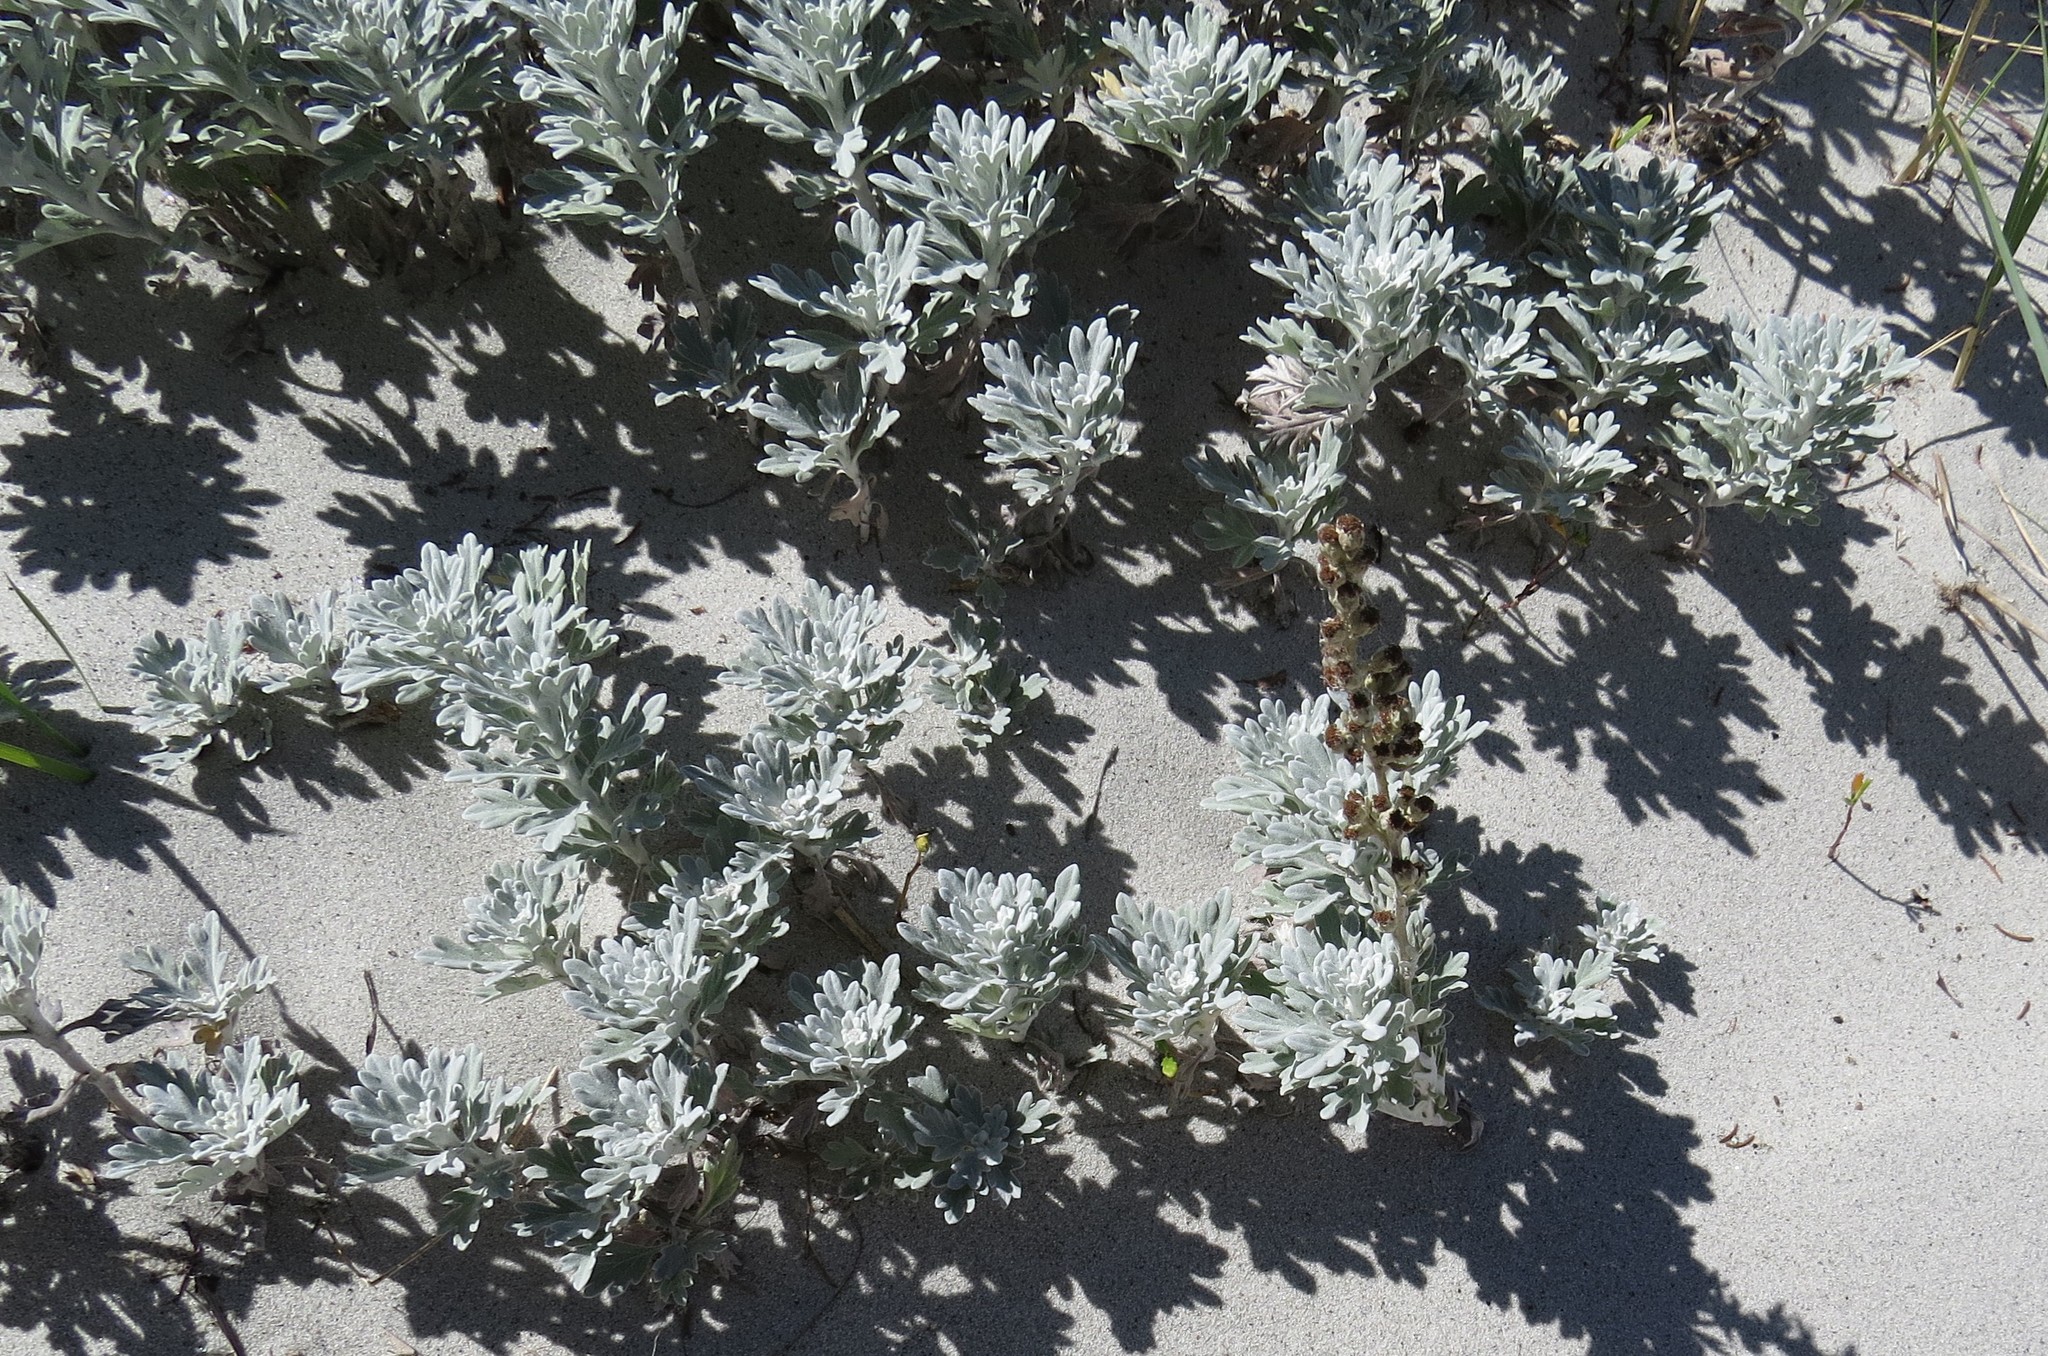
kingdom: Plantae
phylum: Tracheophyta
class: Magnoliopsida
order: Asterales
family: Asteraceae
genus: Artemisia
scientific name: Artemisia stelleriana
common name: Beach wormwood
